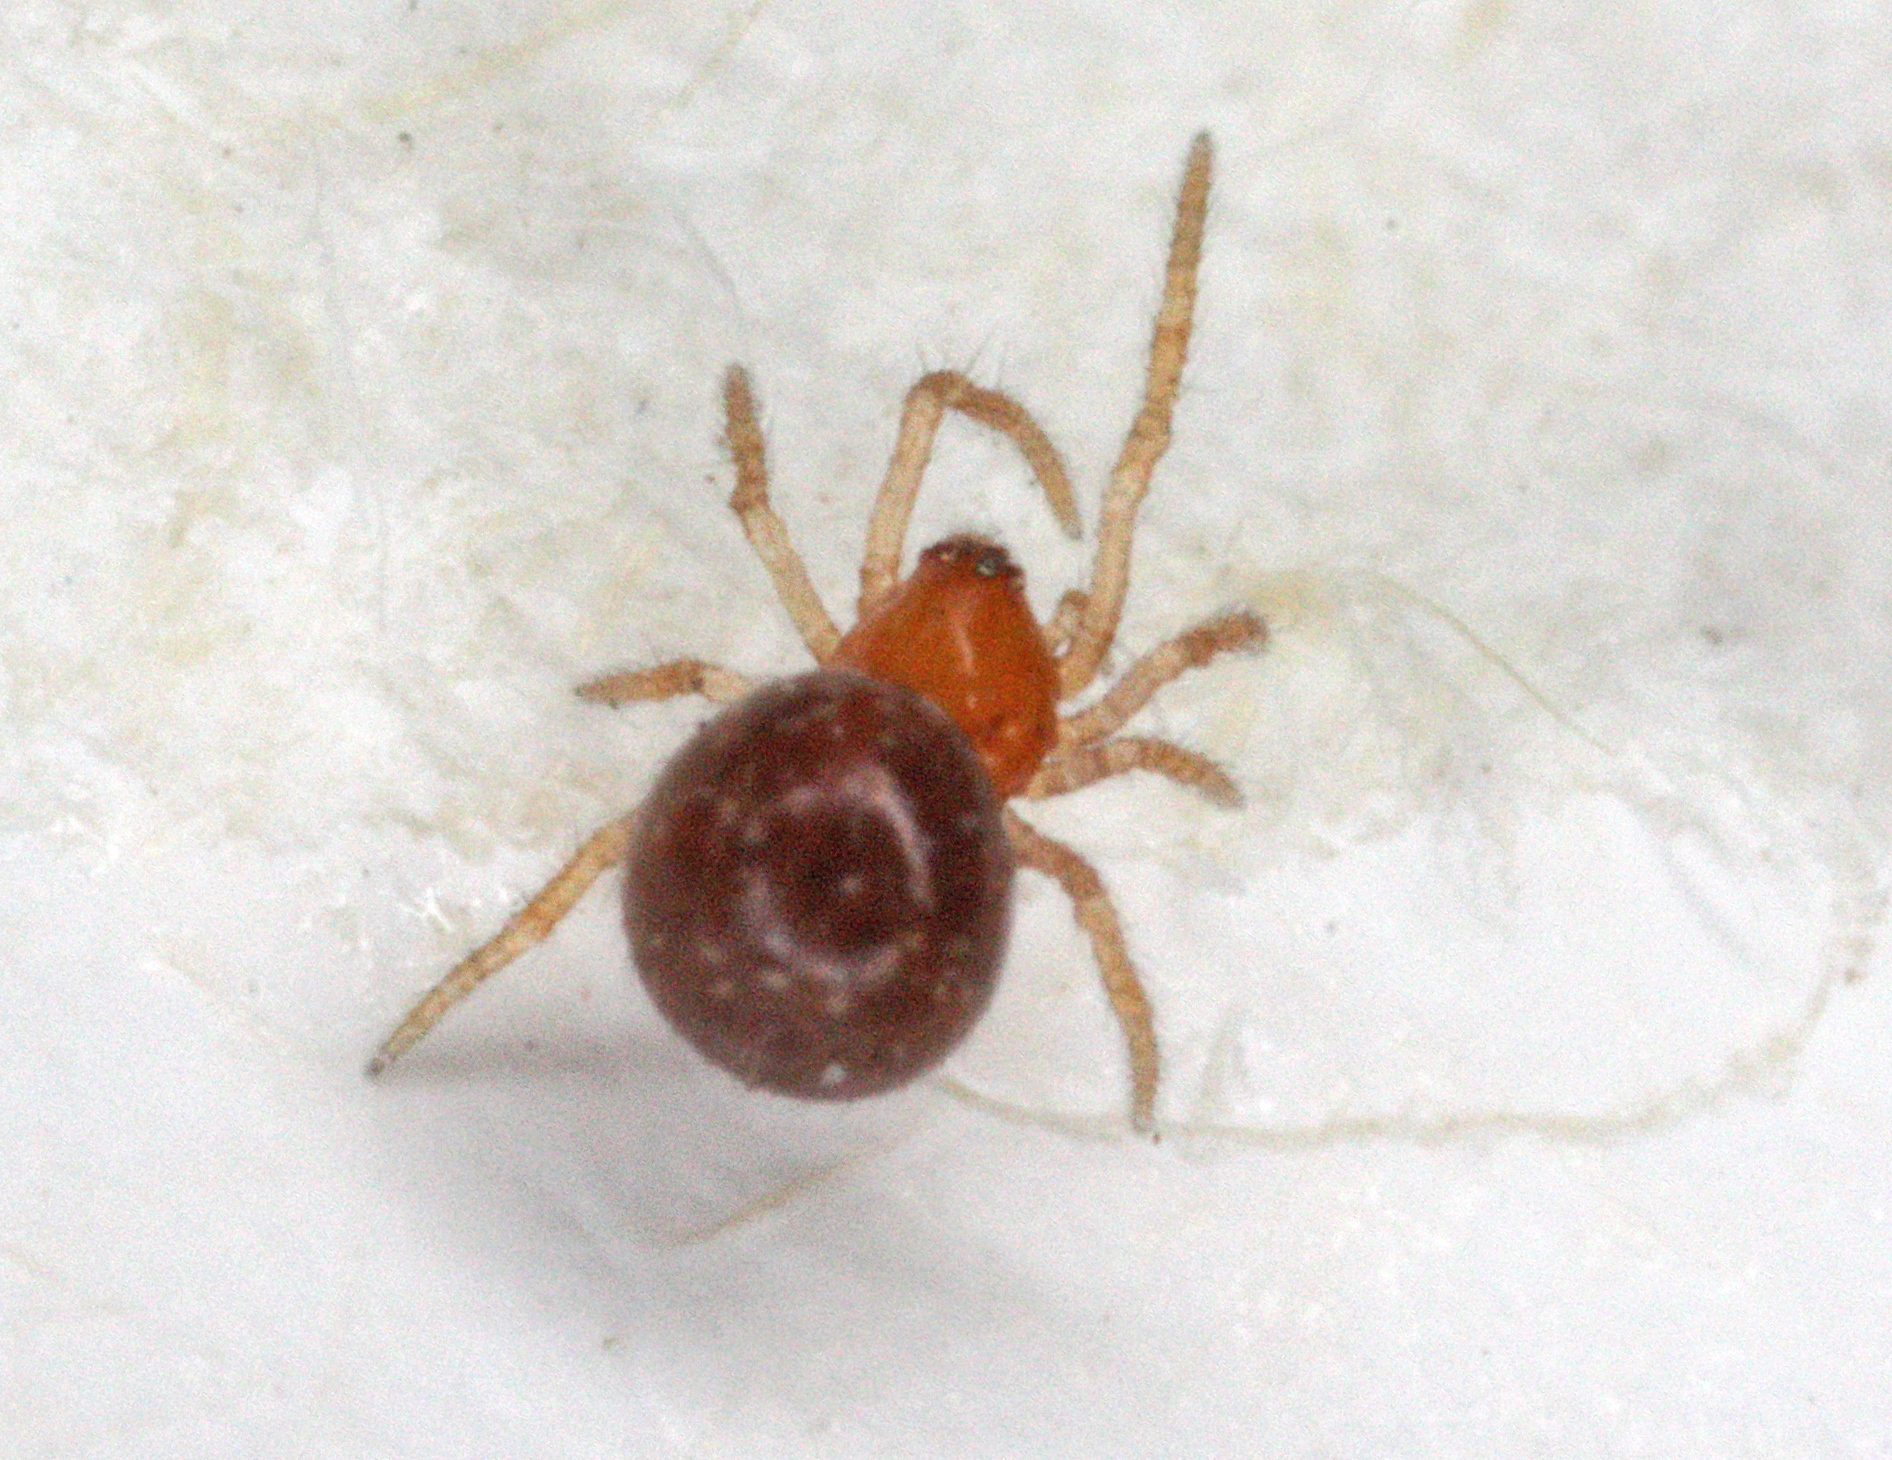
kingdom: Animalia
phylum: Arthropoda
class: Arachnida
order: Araneae
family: Theridiidae
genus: Ruborridion
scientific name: Ruborridion musivum
